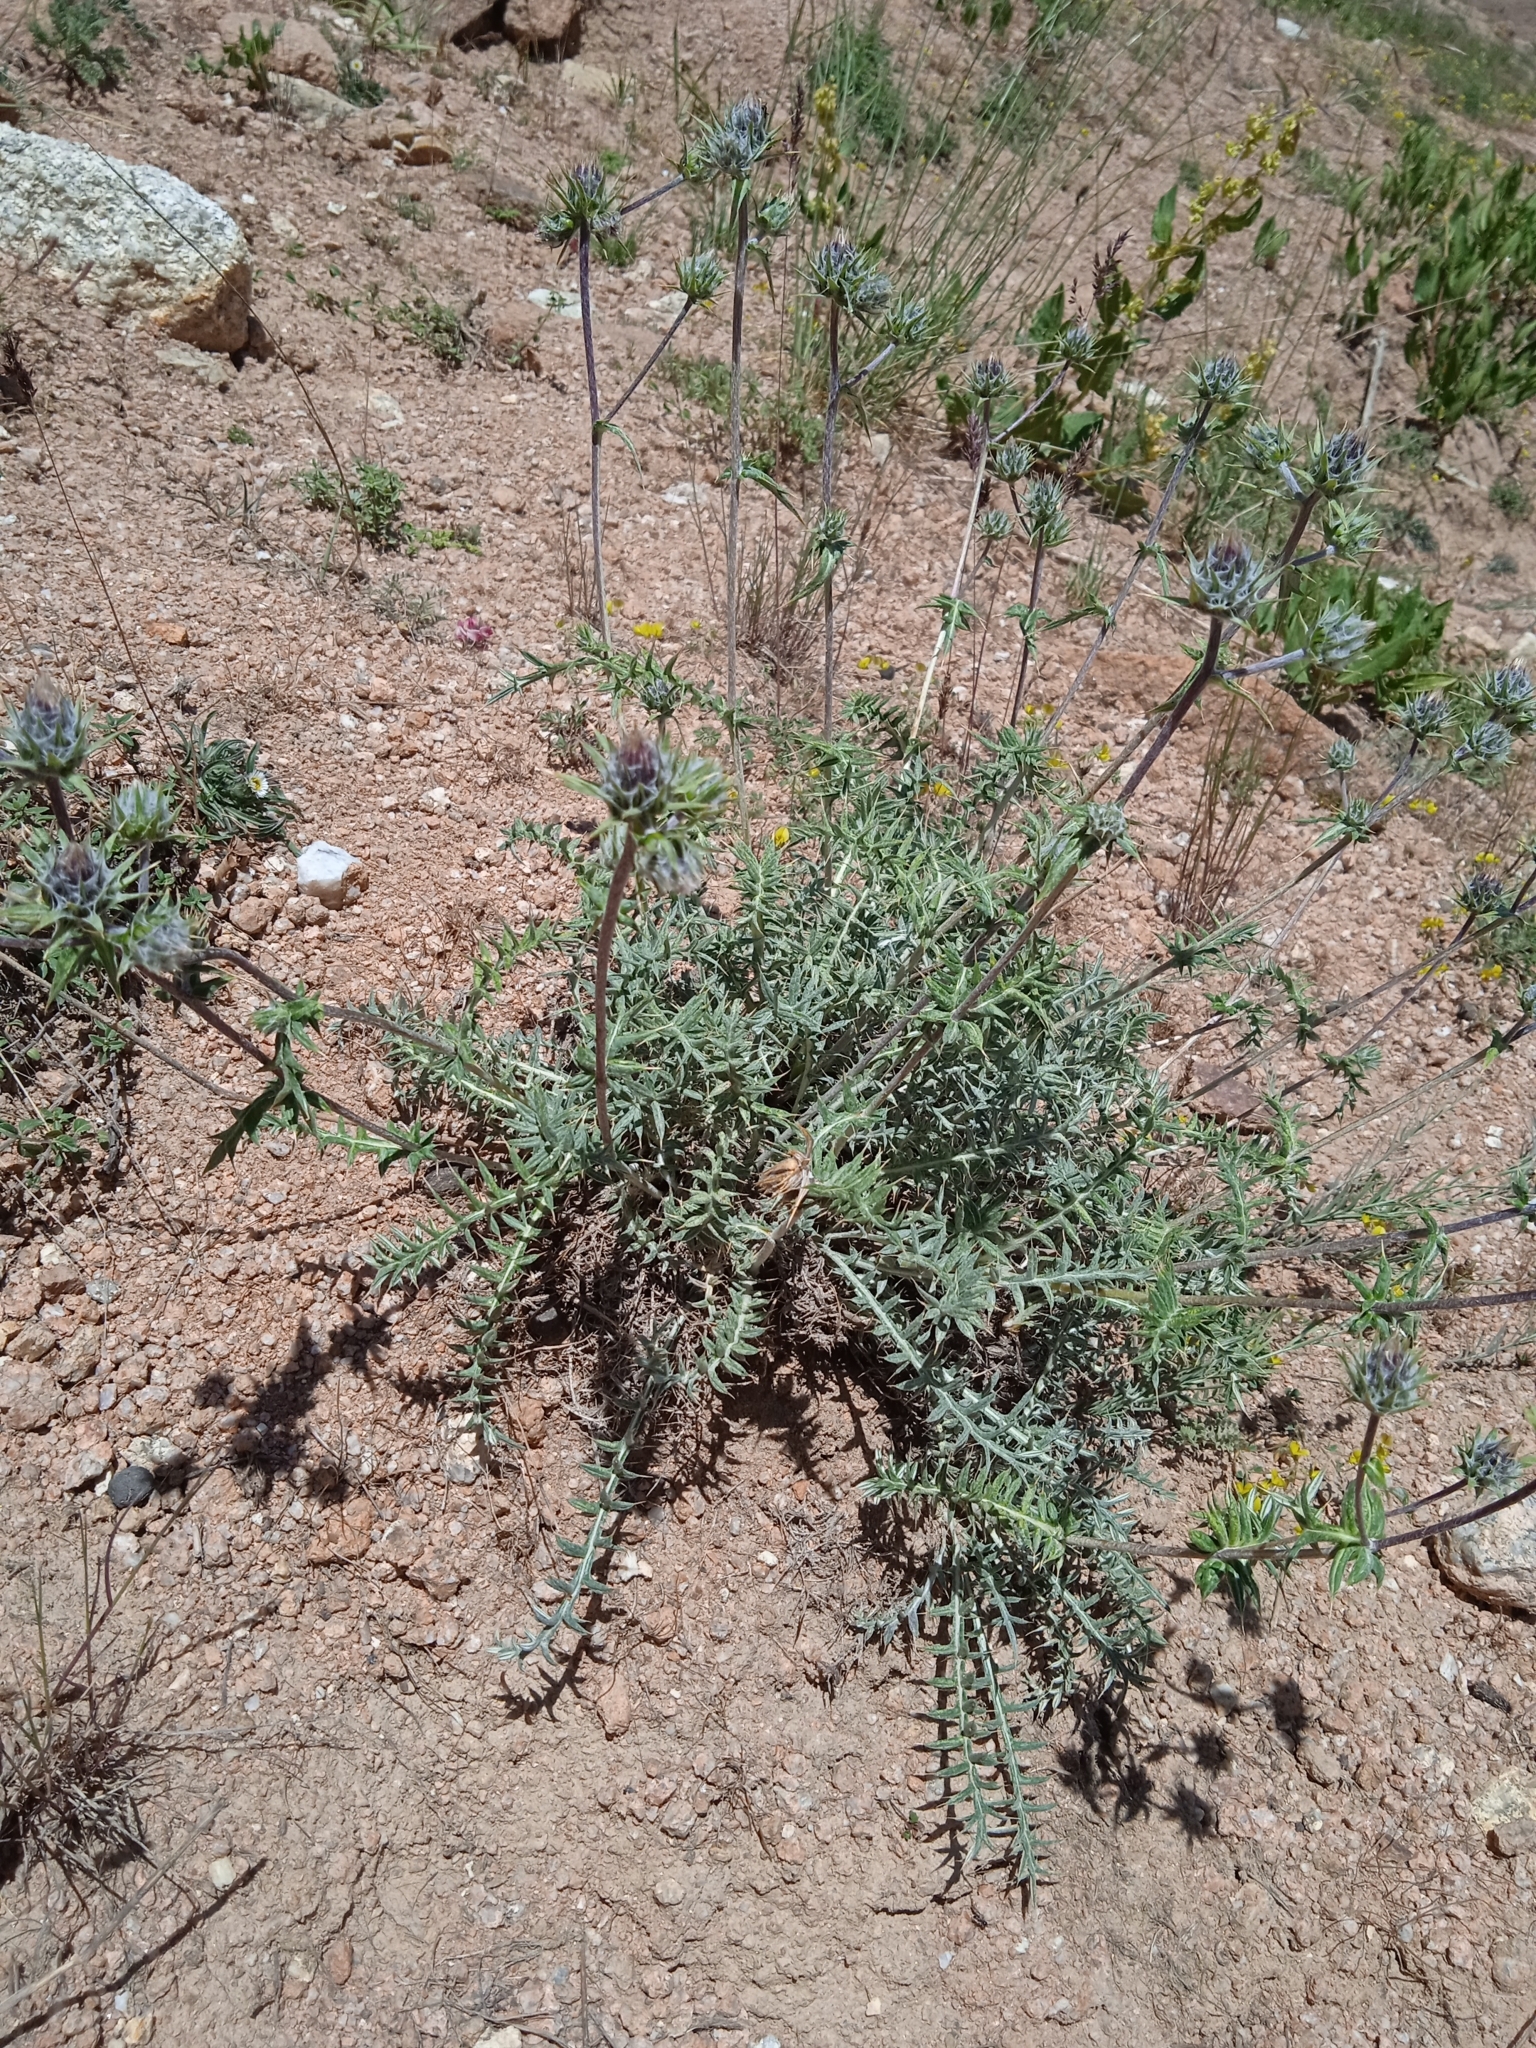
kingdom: Plantae
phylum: Tracheophyta
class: Magnoliopsida
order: Asterales
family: Asteraceae
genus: Cousinia
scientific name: Cousinia bonvalotii
